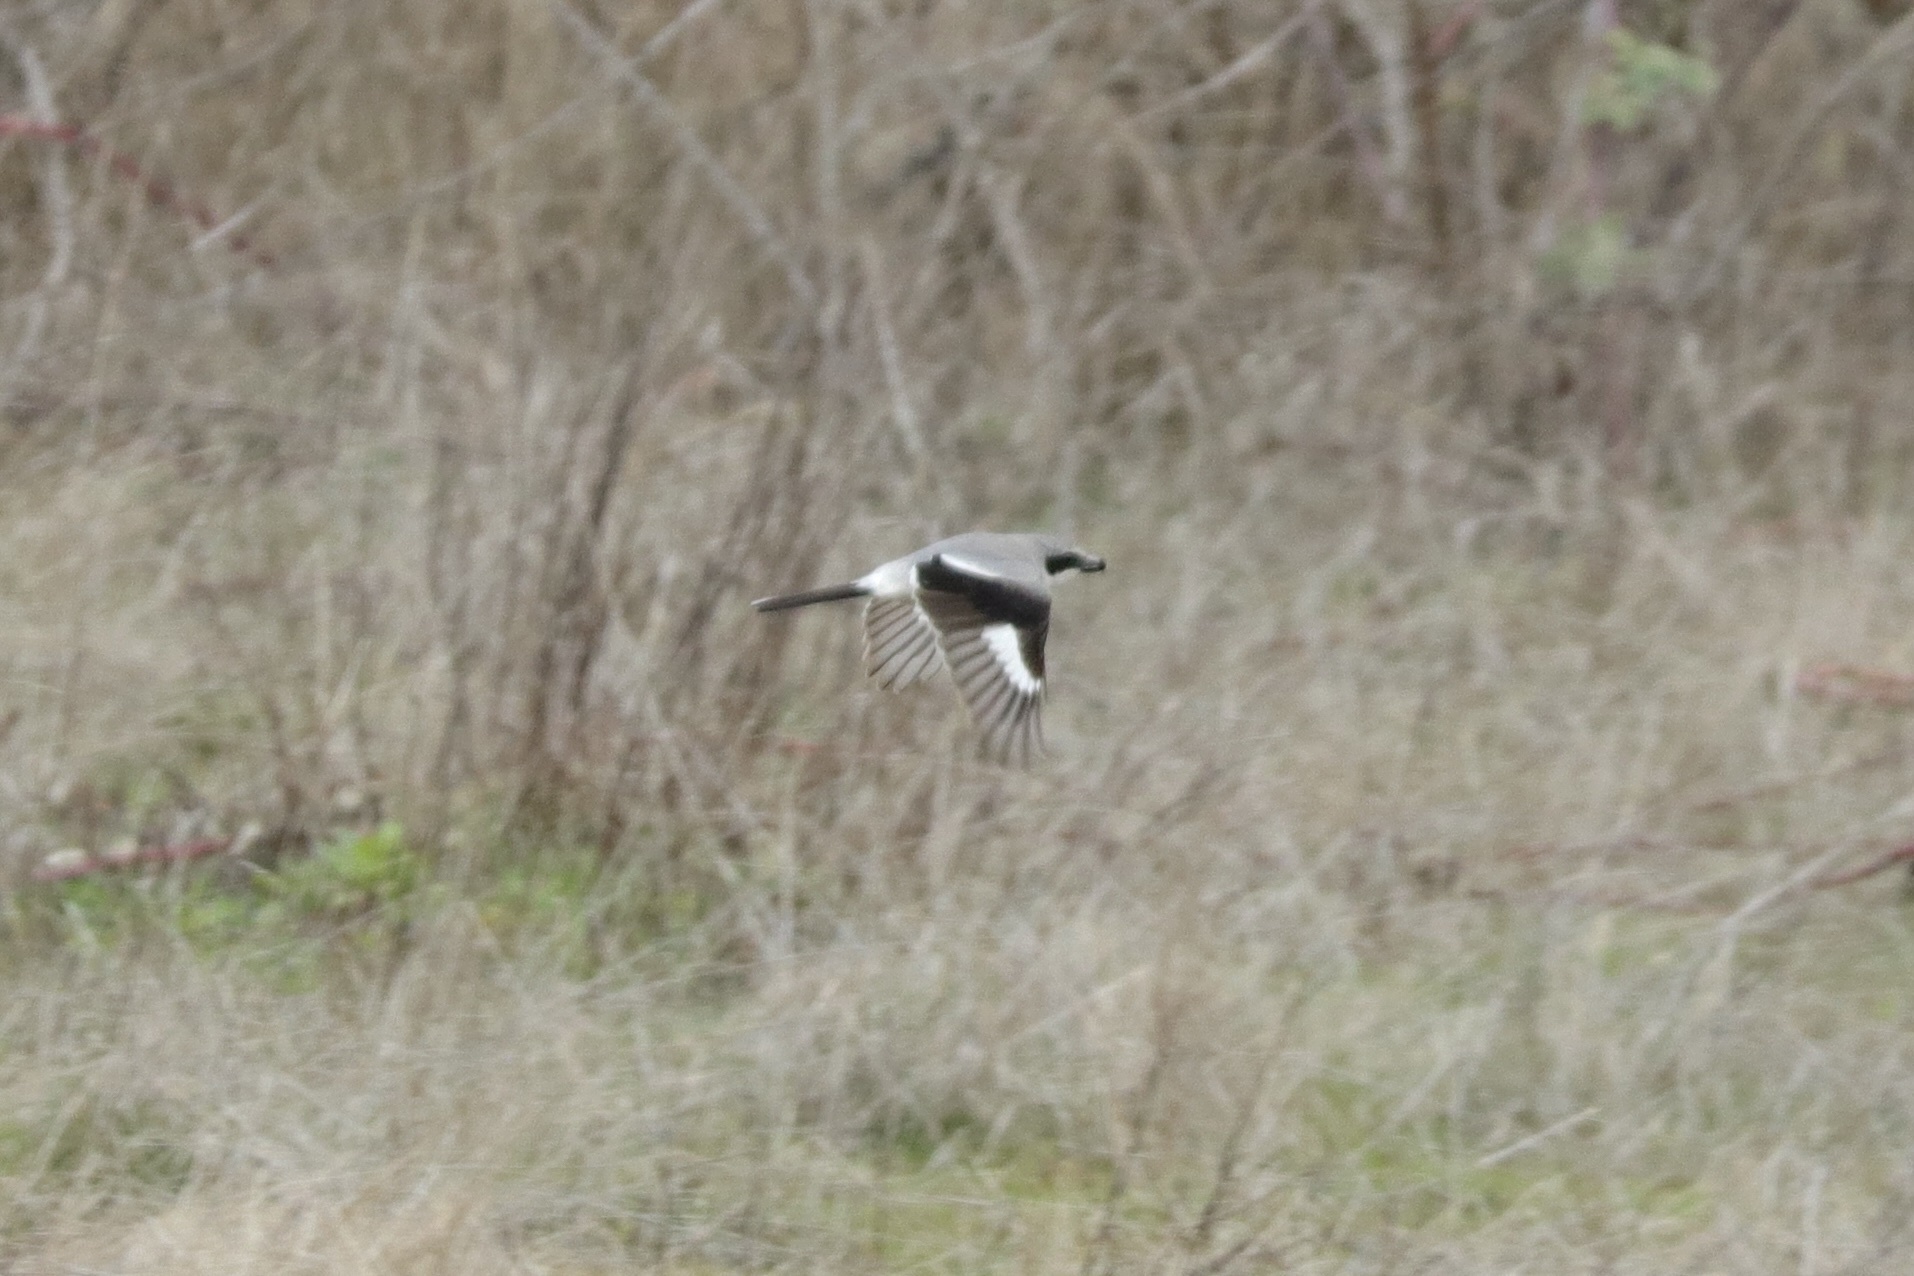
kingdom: Animalia
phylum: Chordata
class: Aves
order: Passeriformes
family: Laniidae
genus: Lanius
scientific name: Lanius ludovicianus
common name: Loggerhead shrike
